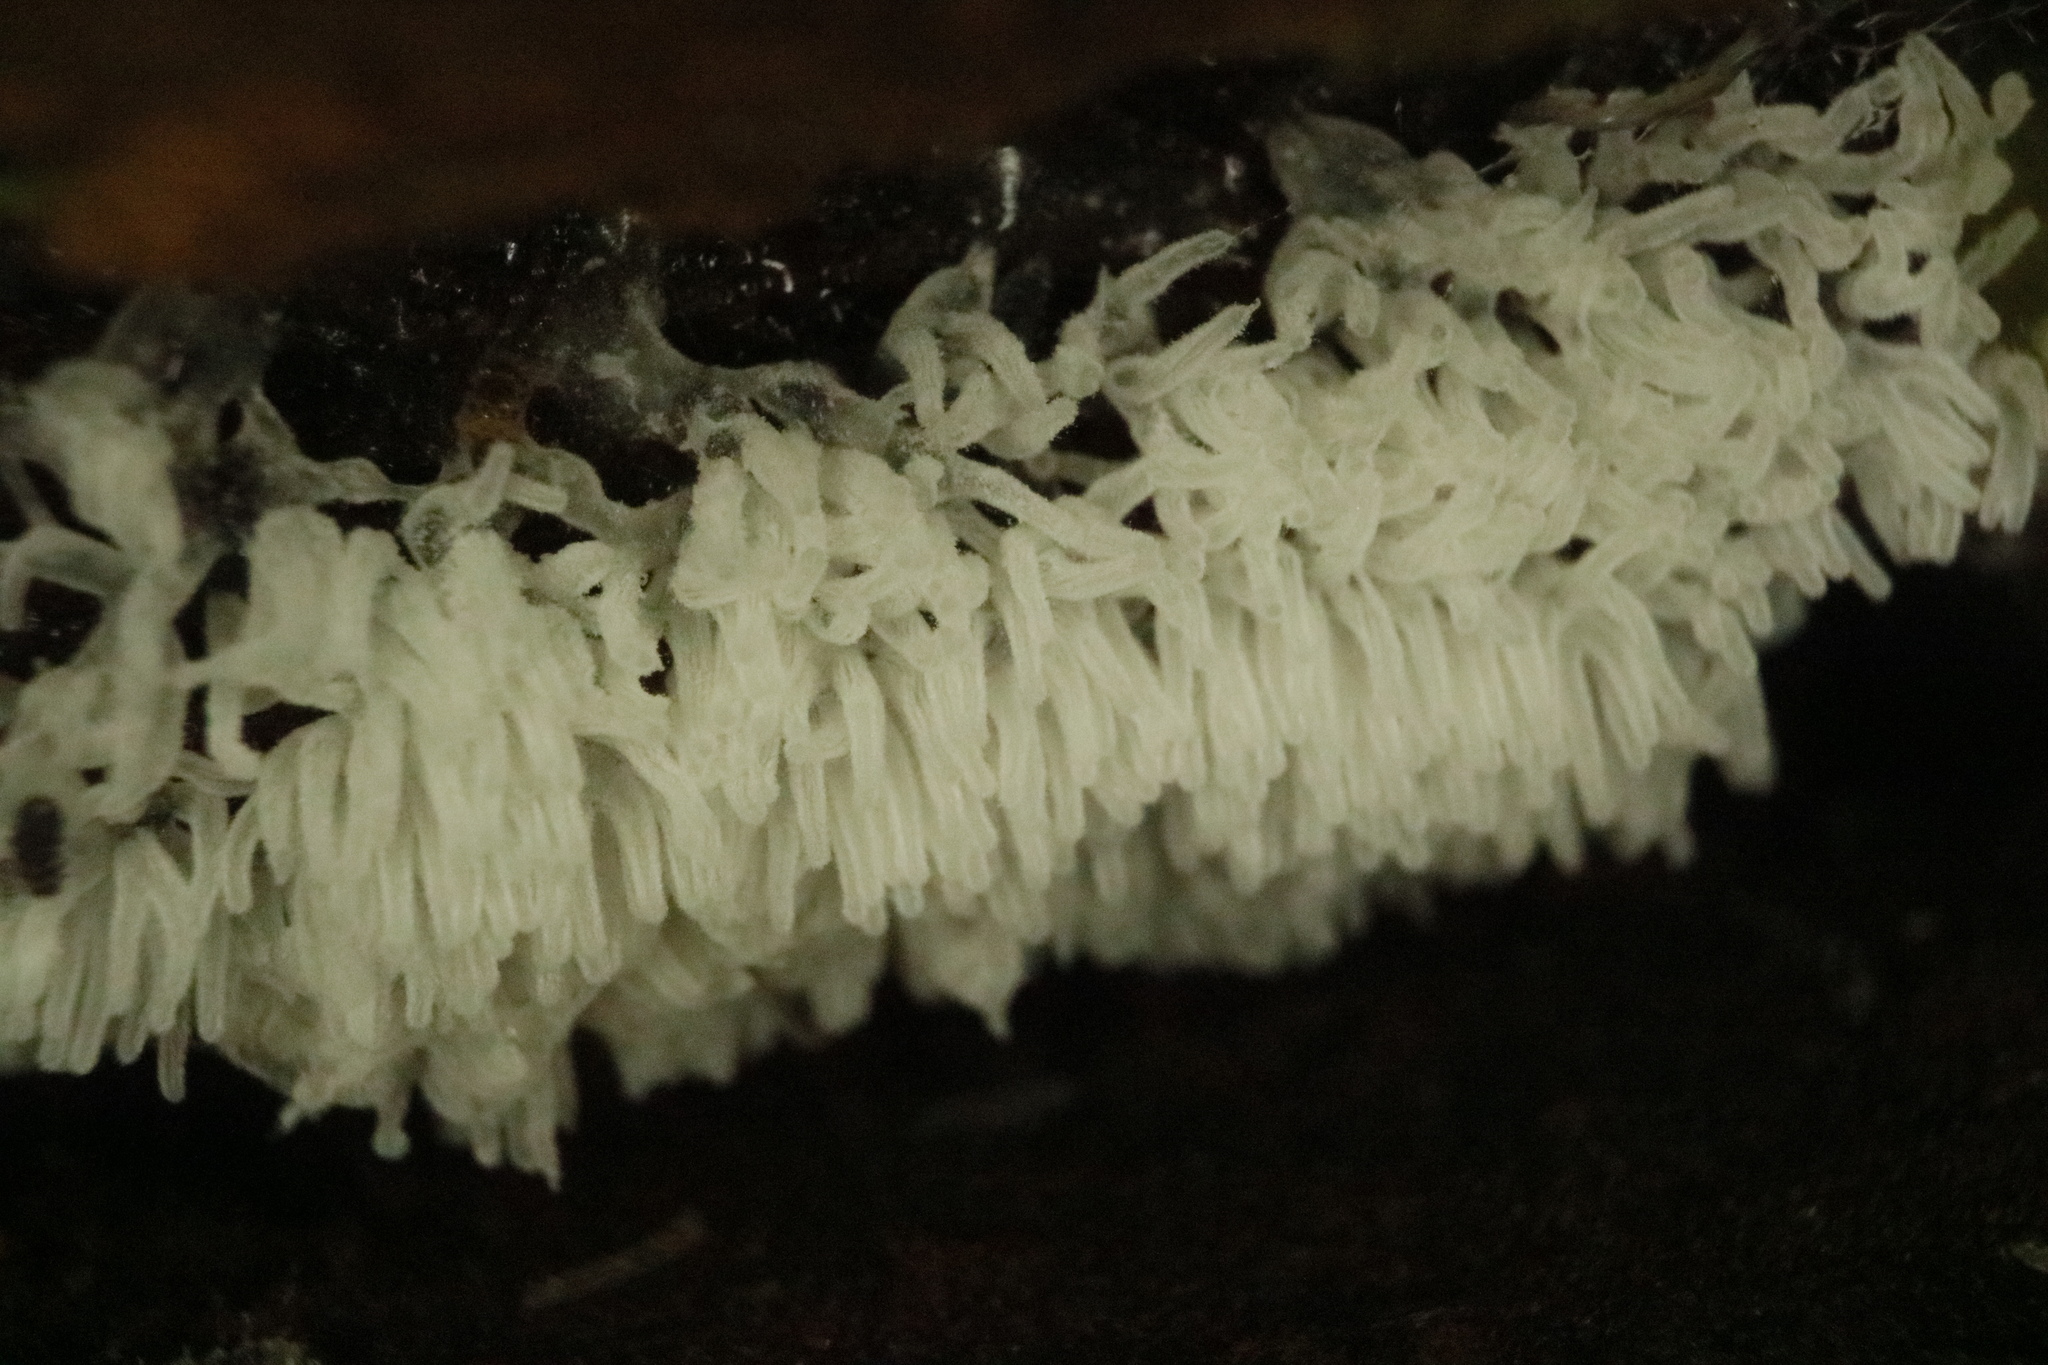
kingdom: Protozoa
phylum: Mycetozoa
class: Protosteliomycetes
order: Ceratiomyxales
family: Ceratiomyxaceae
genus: Ceratiomyxa
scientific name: Ceratiomyxa fruticulosa
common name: Honeycomb coral slime mold
